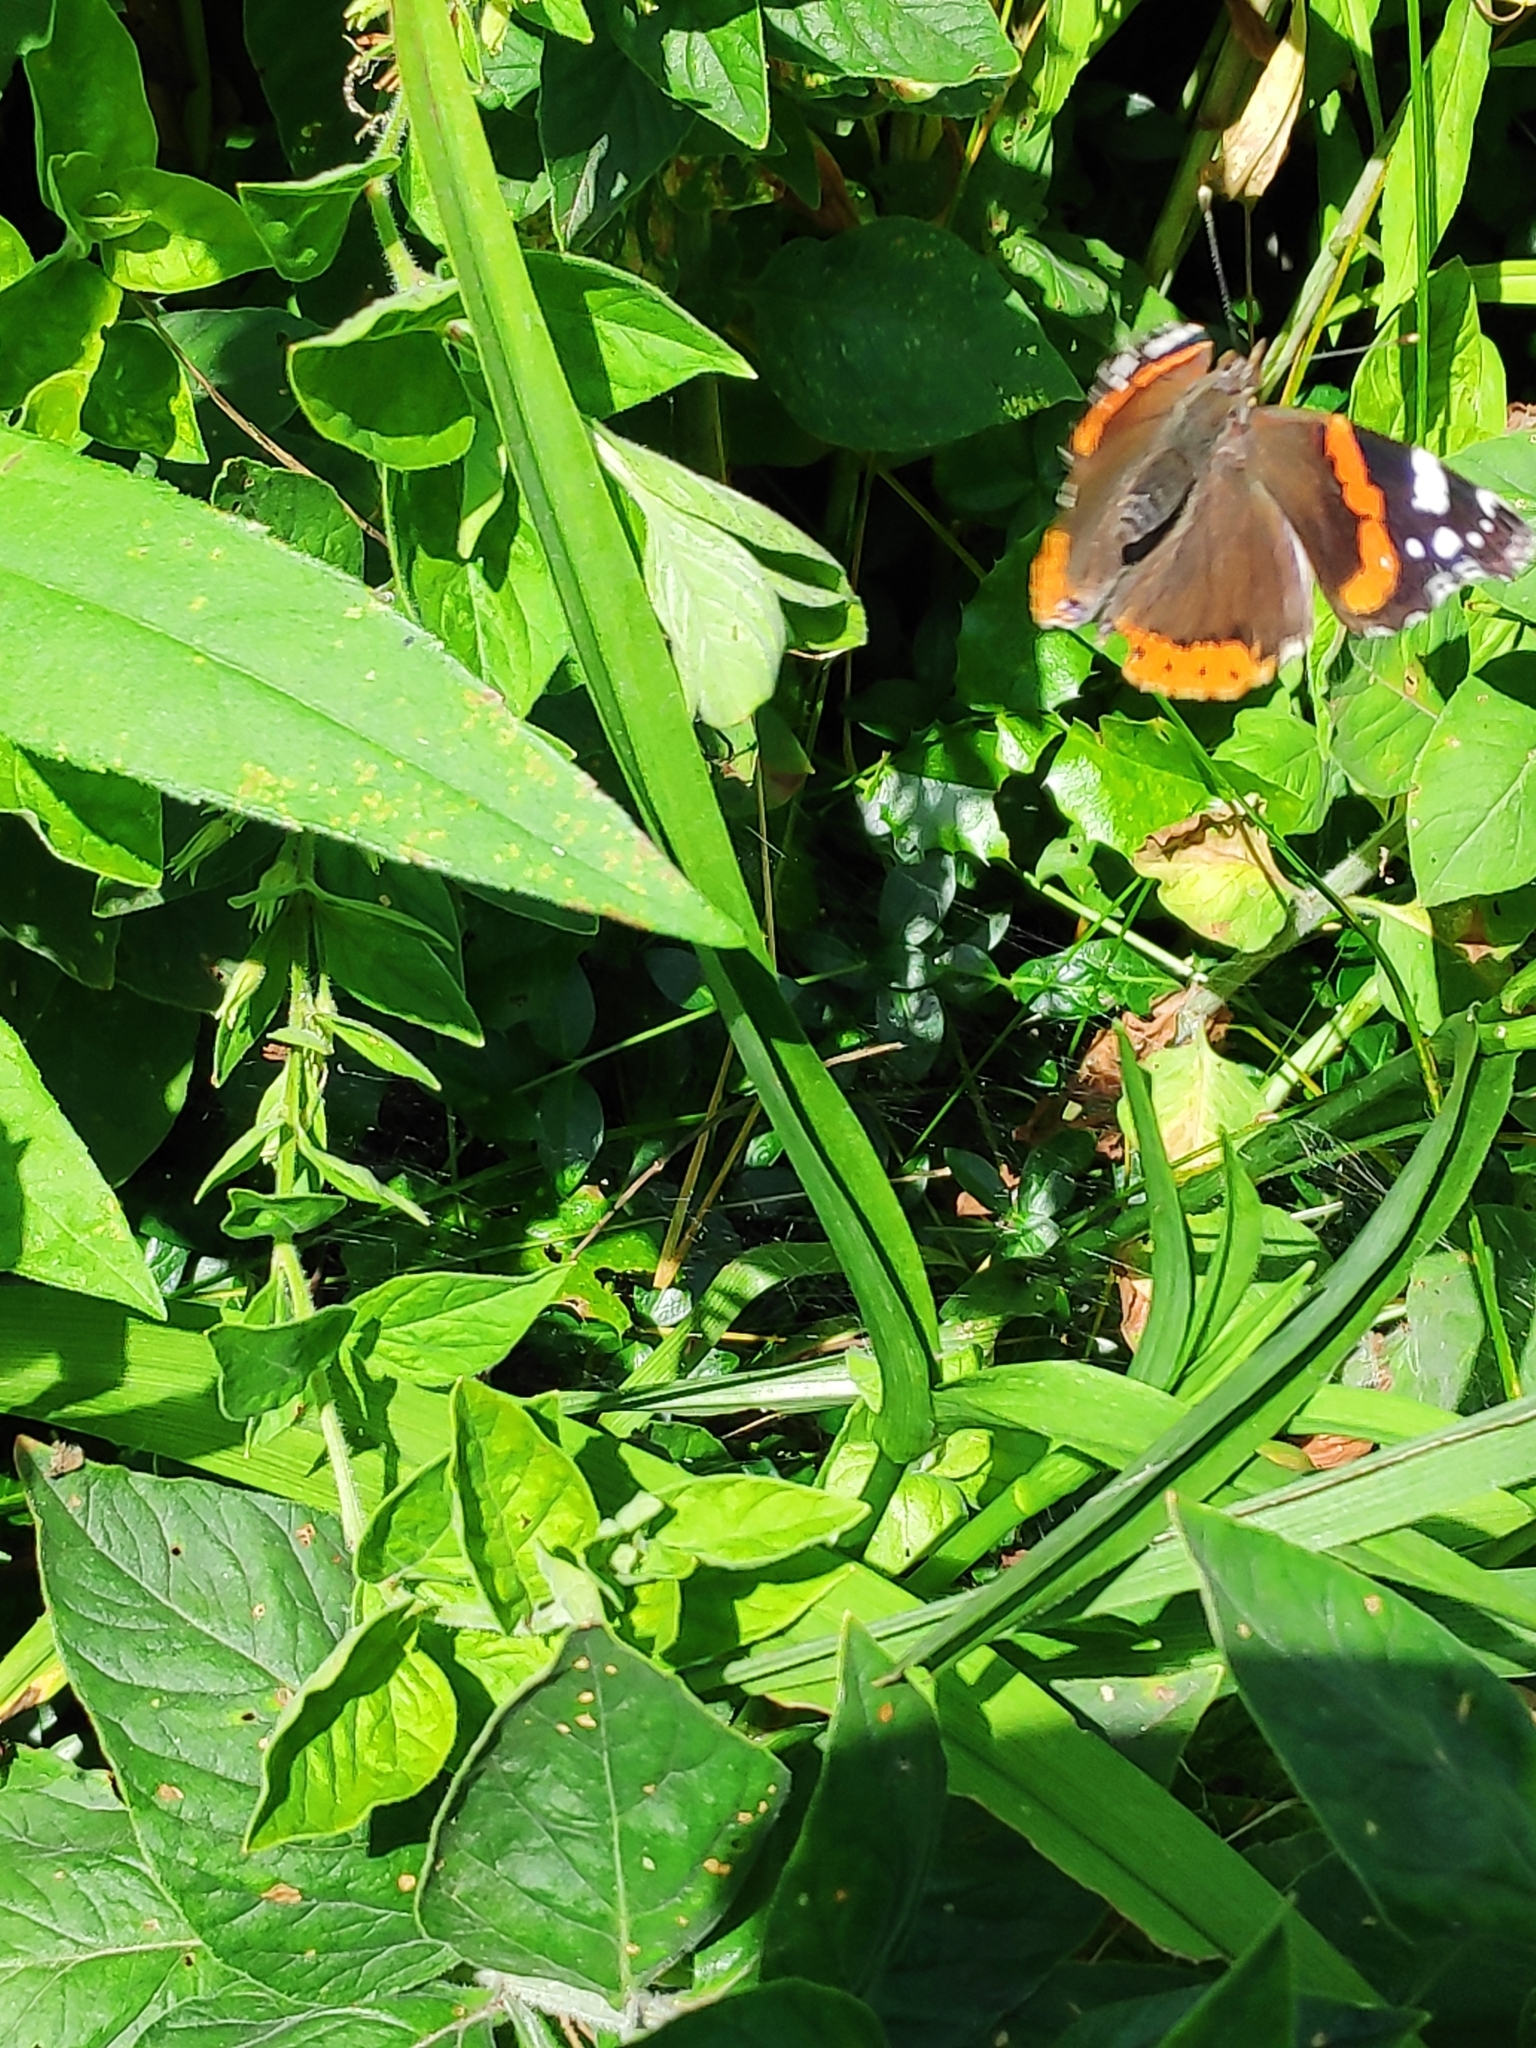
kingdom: Animalia
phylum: Arthropoda
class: Insecta
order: Lepidoptera
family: Nymphalidae
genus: Vanessa
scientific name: Vanessa atalanta
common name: Red admiral
